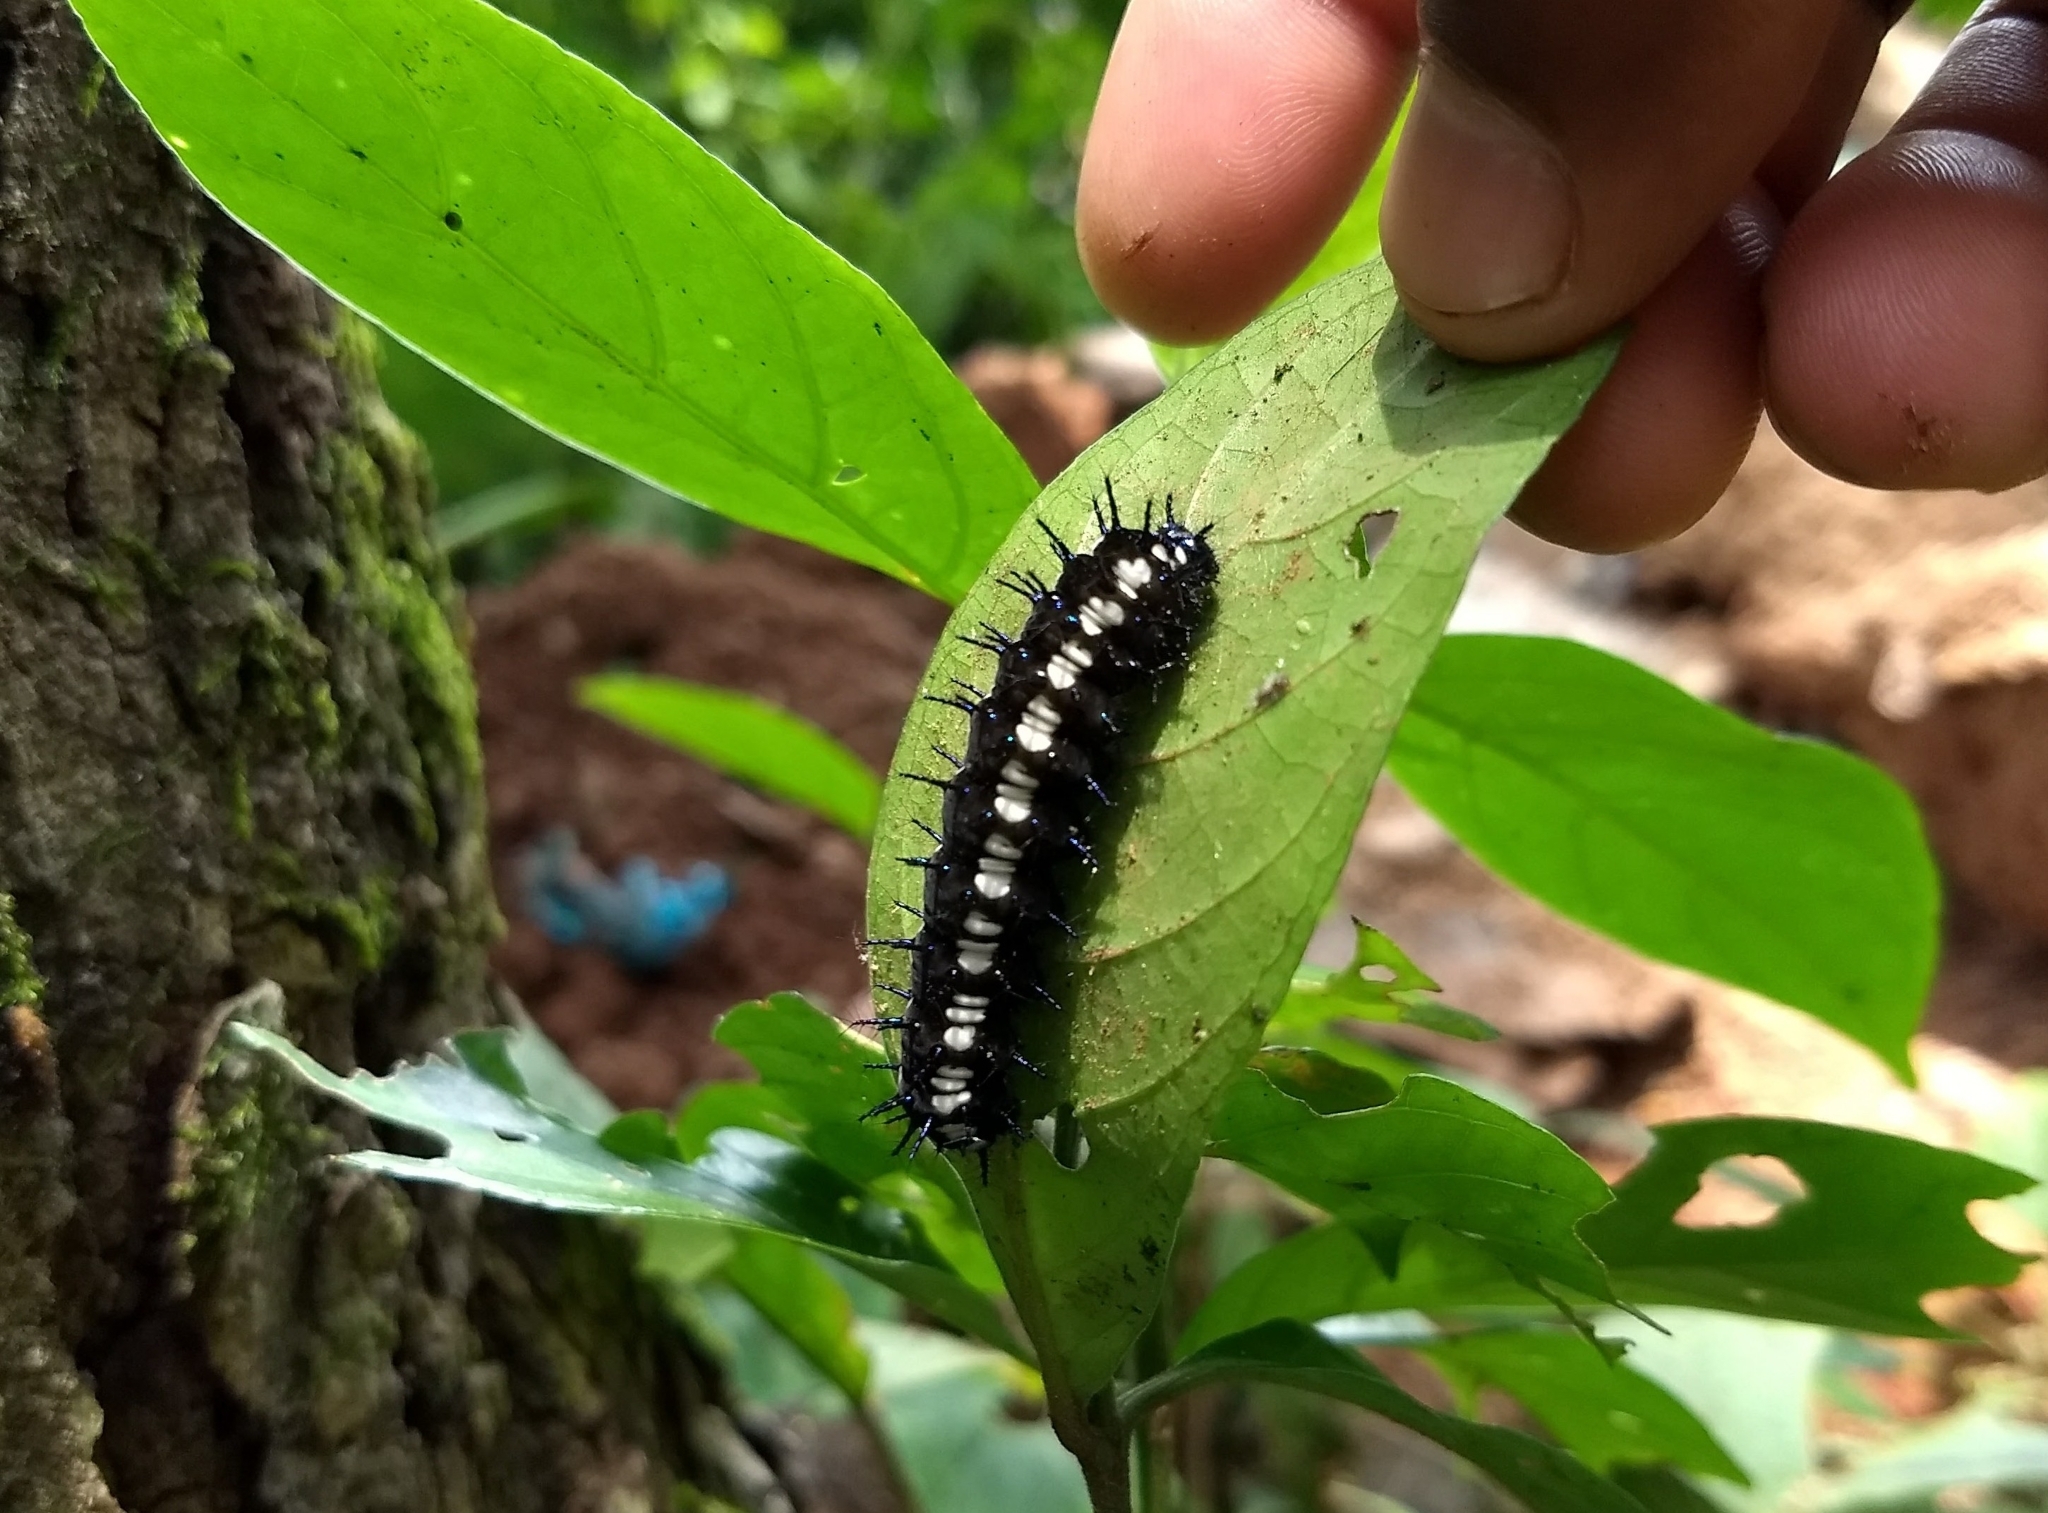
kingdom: Animalia
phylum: Arthropoda
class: Insecta
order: Lepidoptera
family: Nymphalidae
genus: Doleschallia
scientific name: Doleschallia bisaltide
